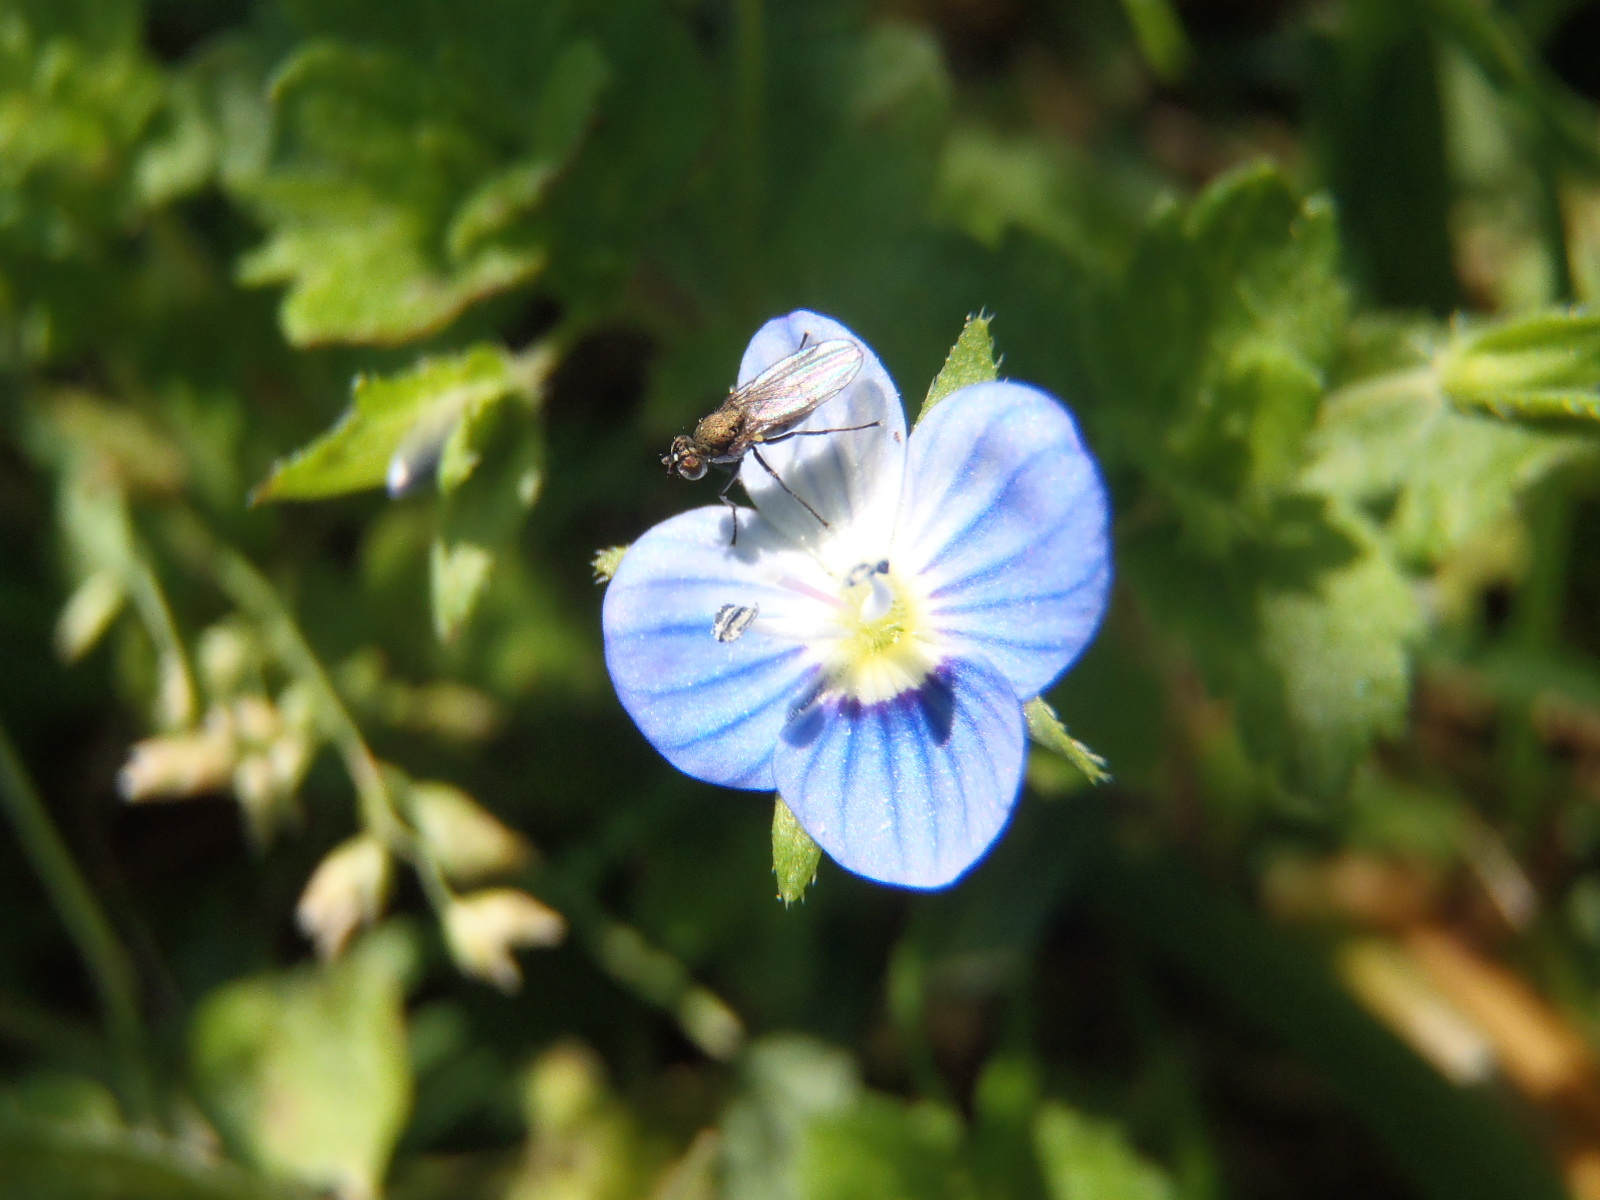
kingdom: Plantae
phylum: Tracheophyta
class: Magnoliopsida
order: Lamiales
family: Plantaginaceae
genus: Veronica
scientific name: Veronica persica
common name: Common field-speedwell
